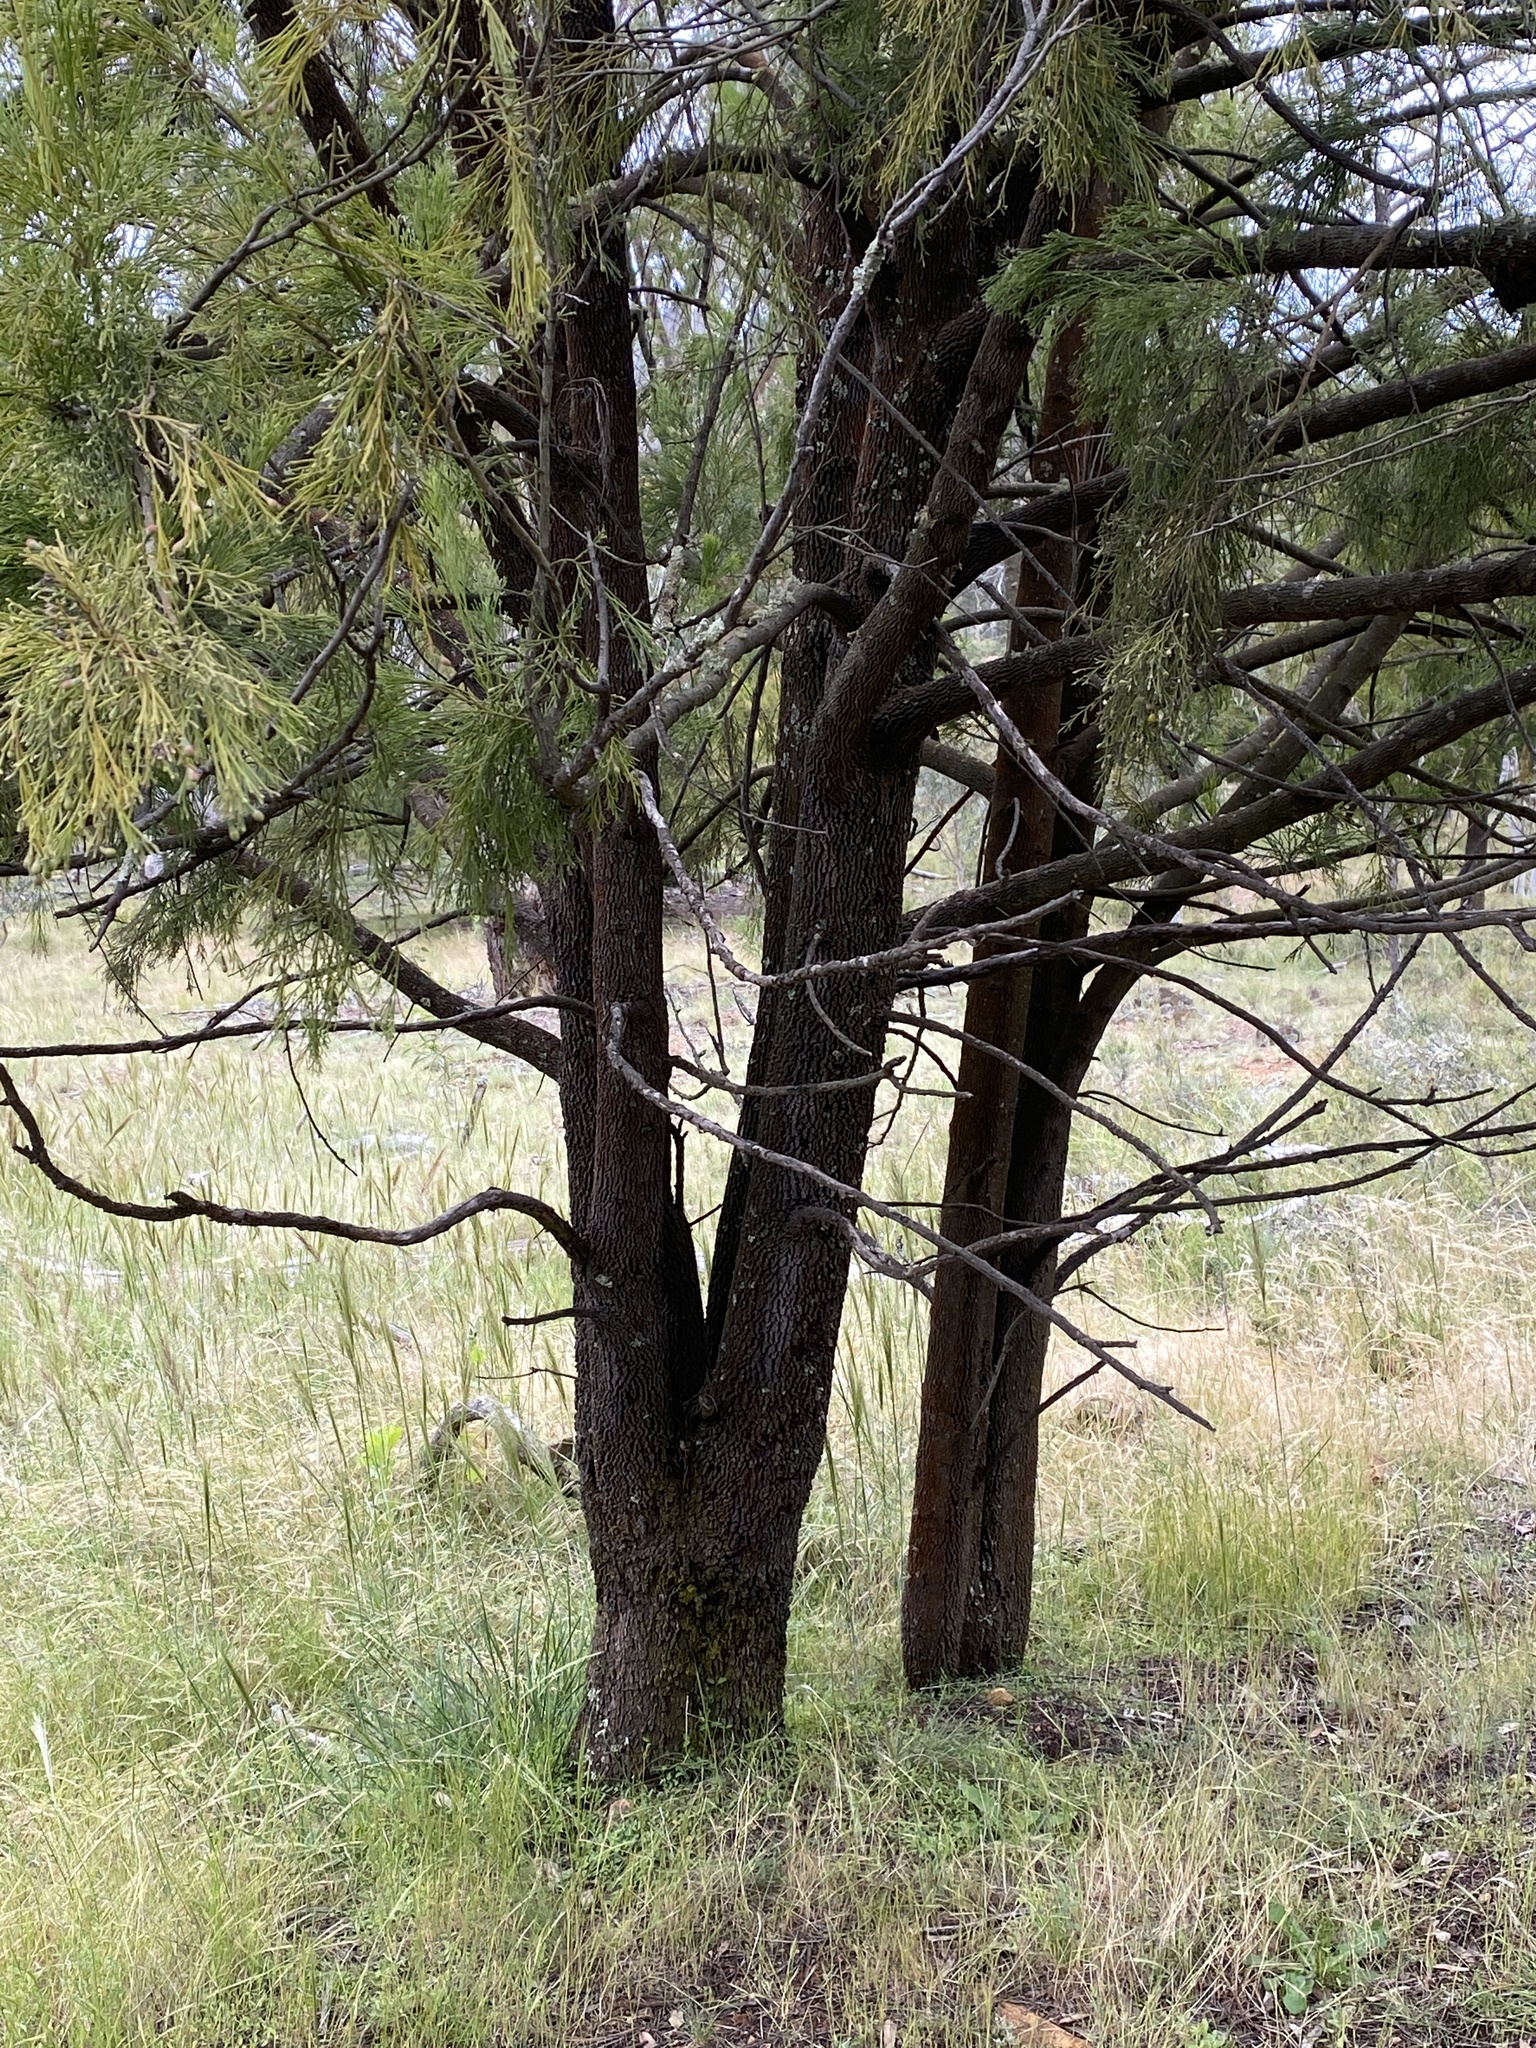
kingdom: Plantae
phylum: Tracheophyta
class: Magnoliopsida
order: Santalales
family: Santalaceae
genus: Exocarpos
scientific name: Exocarpos cupressiformis
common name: Cherry ballart
